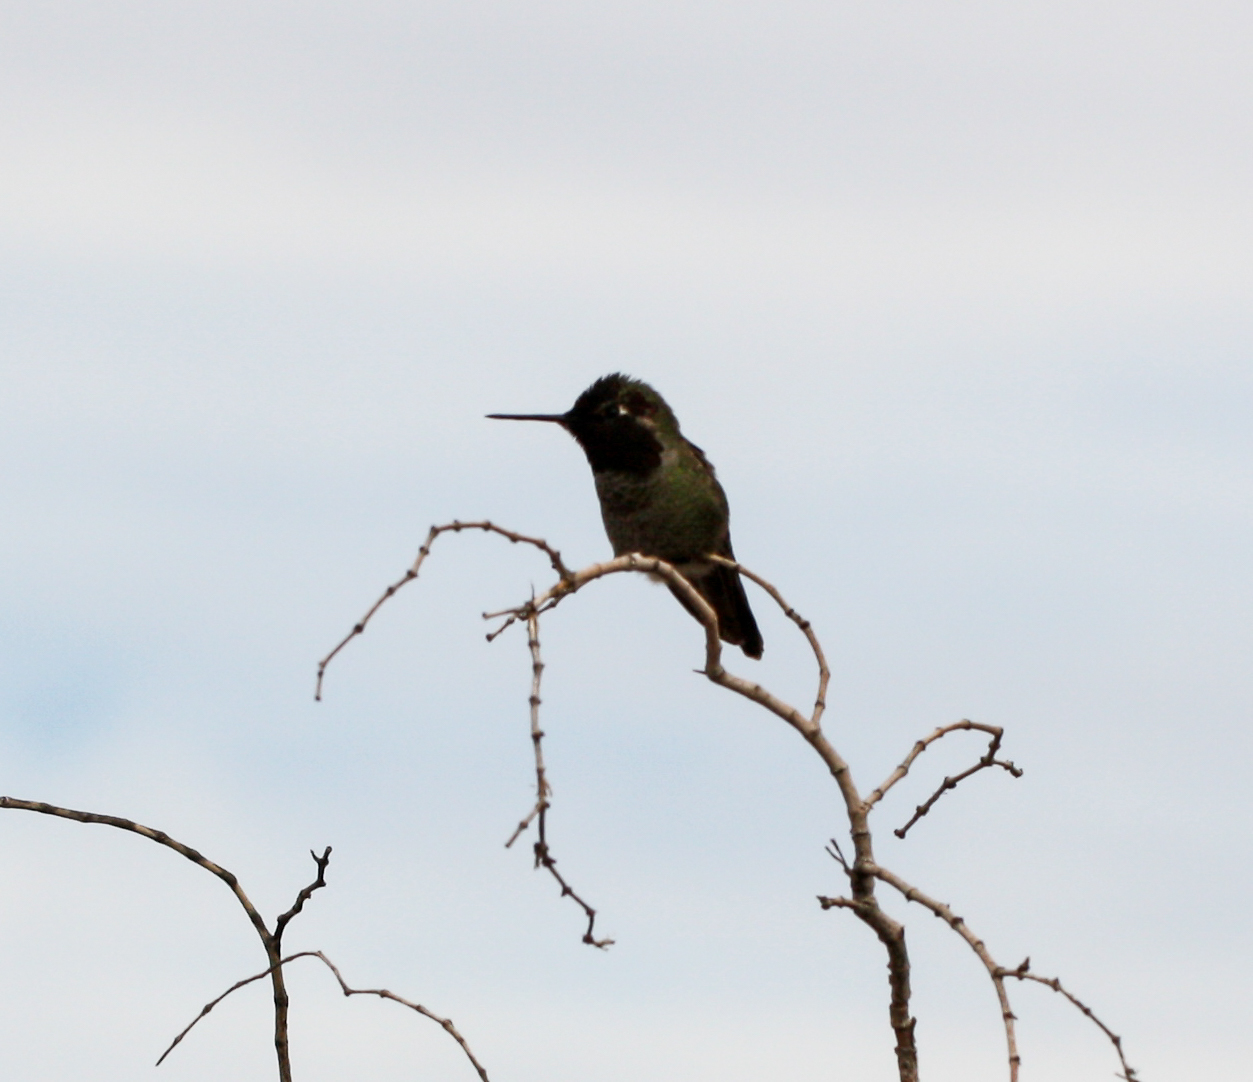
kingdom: Animalia
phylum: Chordata
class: Aves
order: Apodiformes
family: Trochilidae
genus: Calypte
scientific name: Calypte anna
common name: Anna's hummingbird
